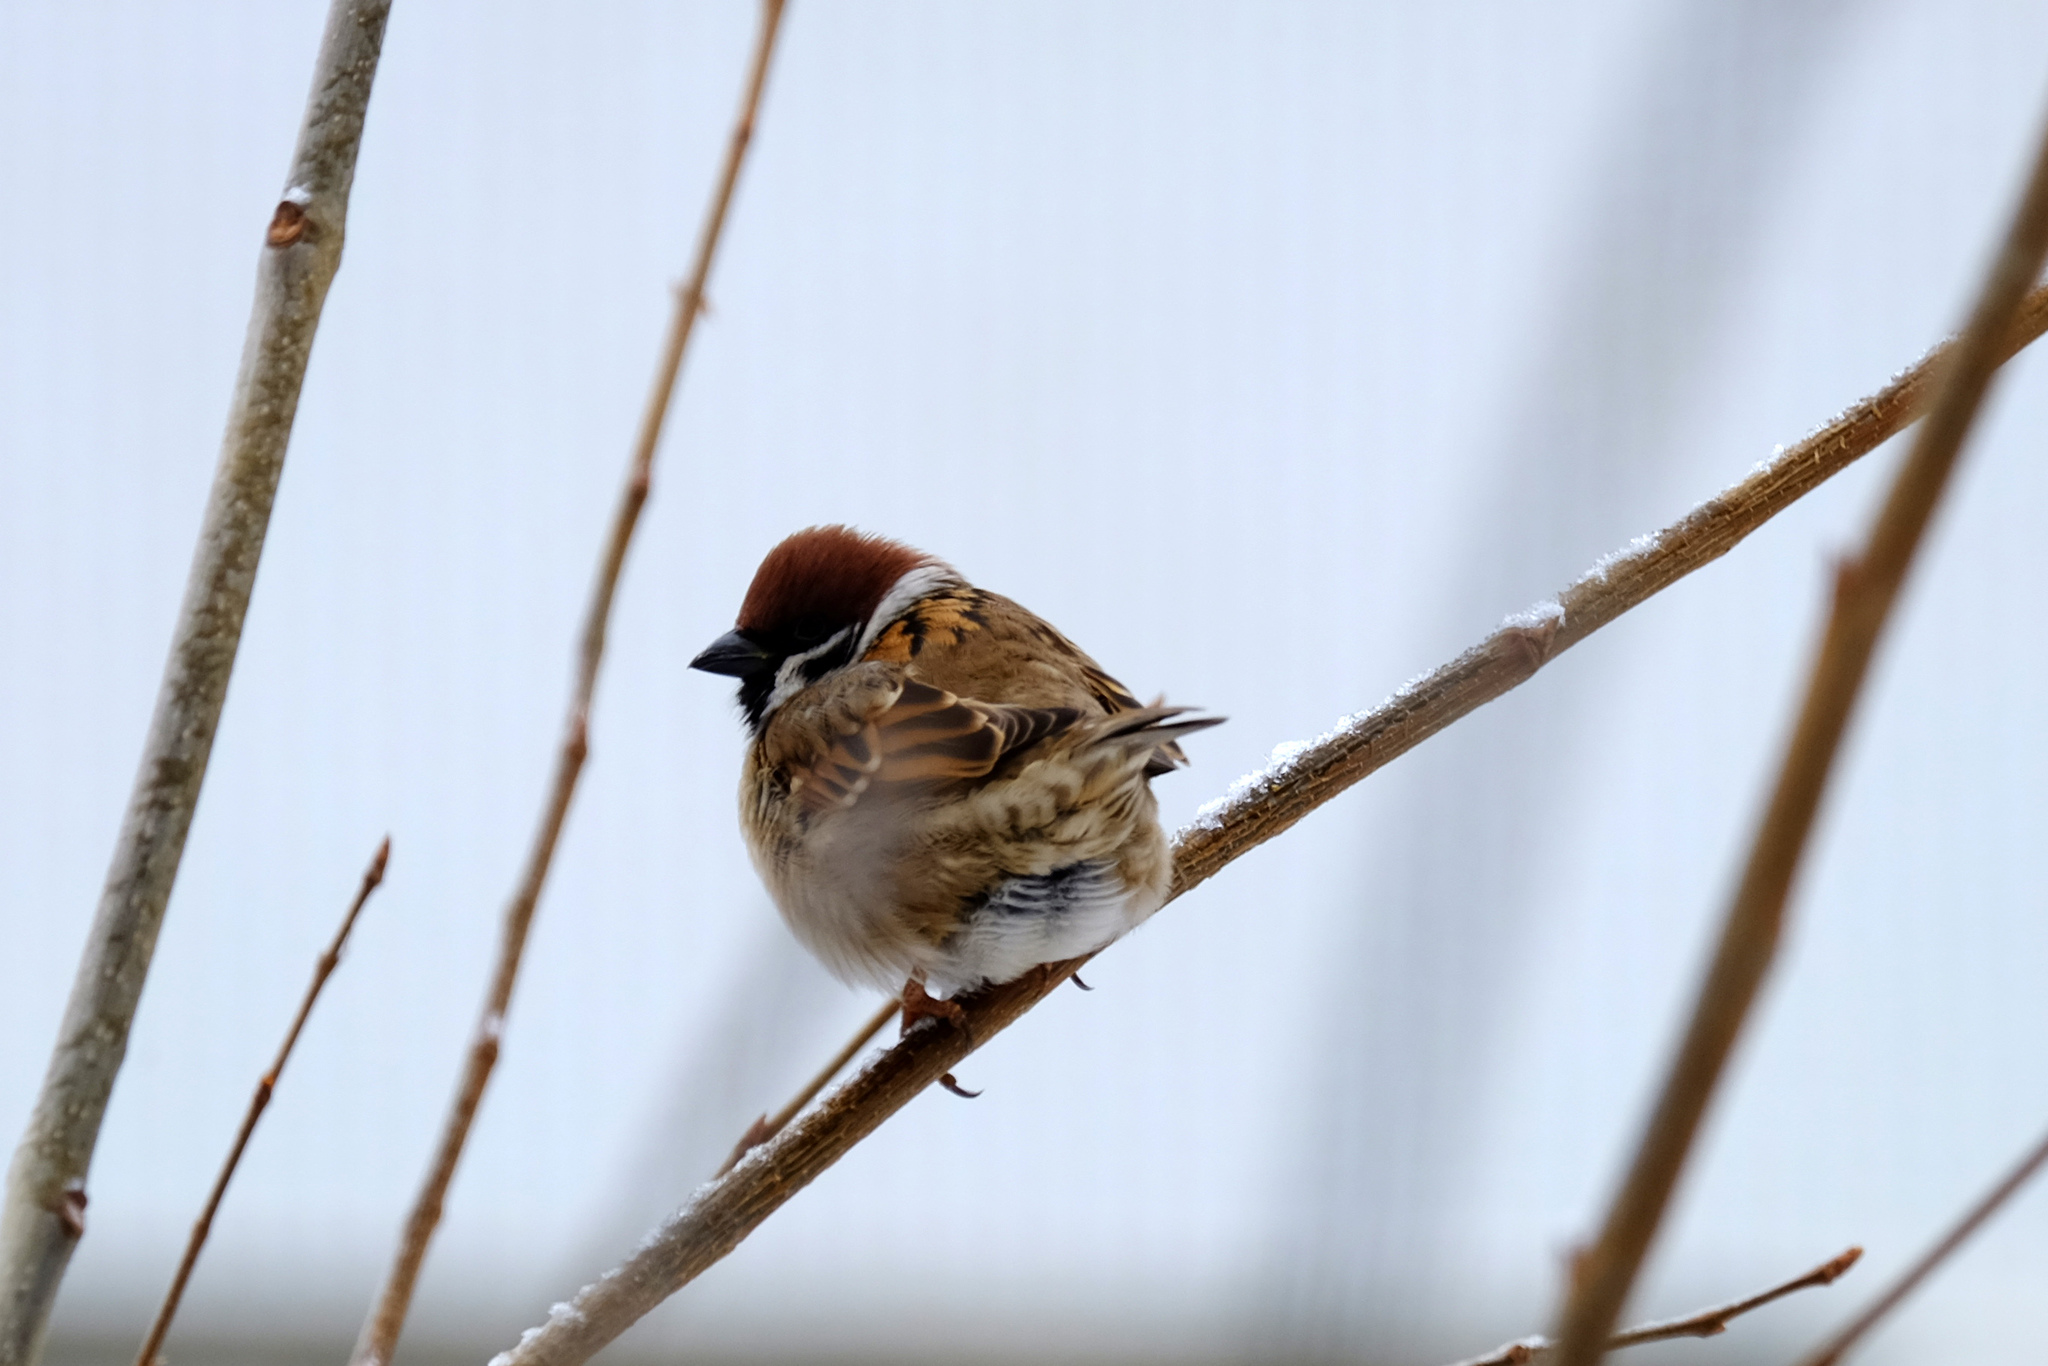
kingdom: Animalia
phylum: Chordata
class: Aves
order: Passeriformes
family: Passeridae
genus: Passer
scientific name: Passer montanus
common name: Eurasian tree sparrow
